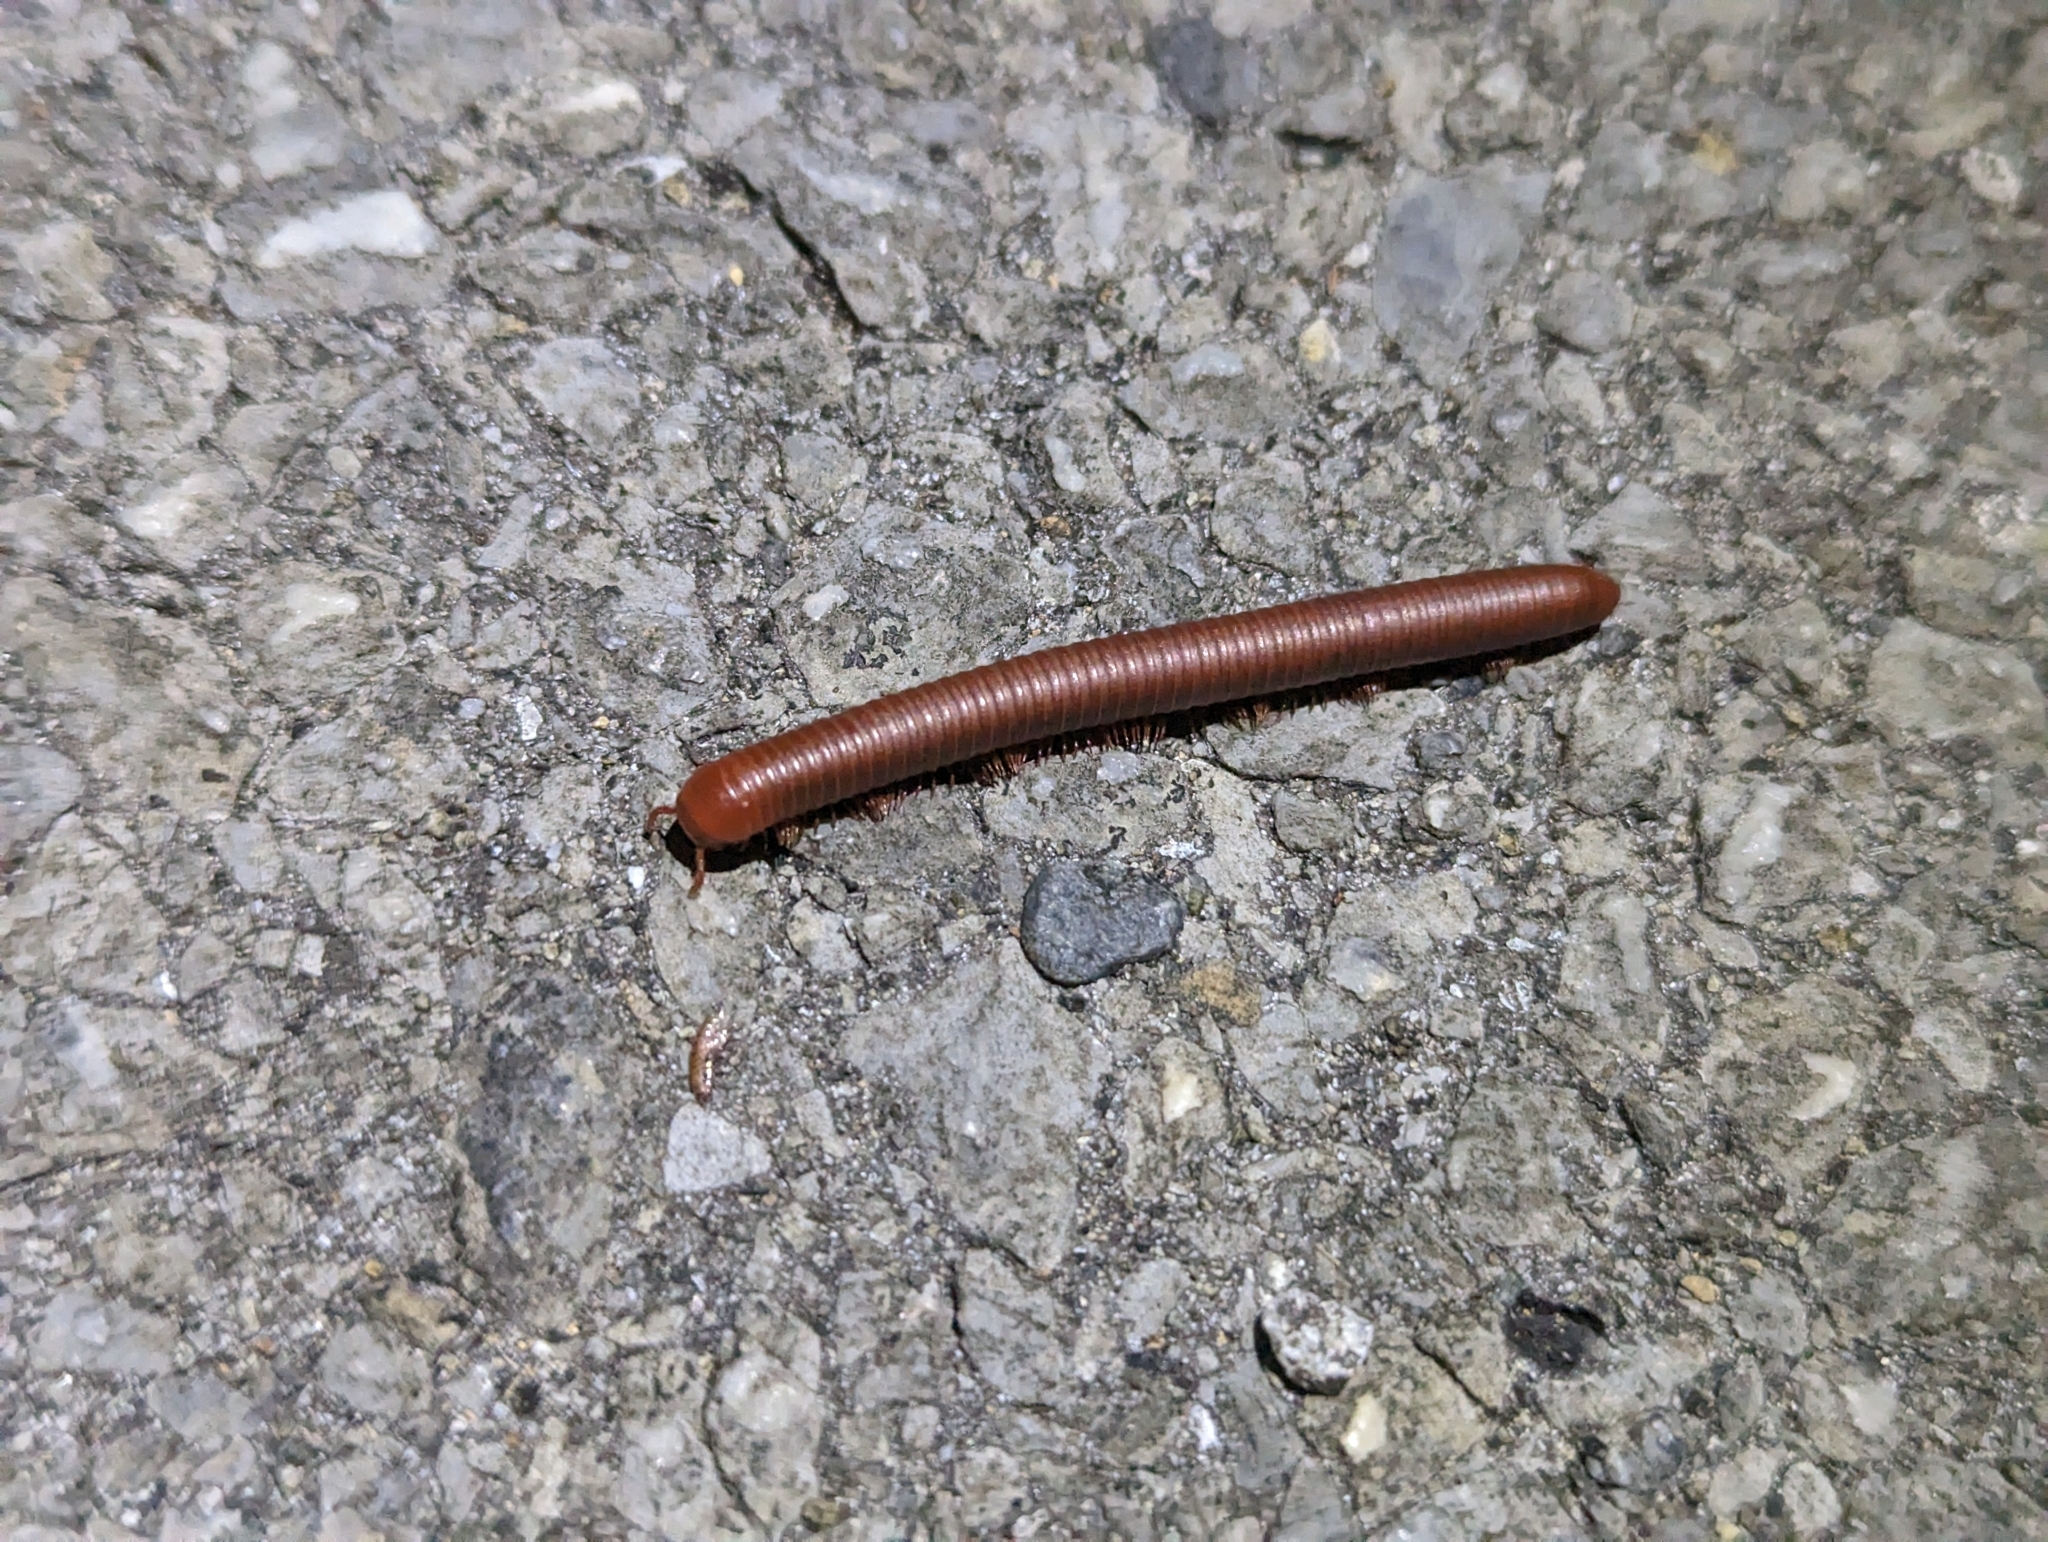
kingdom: Animalia
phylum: Arthropoda
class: Diplopoda
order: Spirobolida
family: Pachybolidae
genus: Trigoniulus
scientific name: Trigoniulus corallinus
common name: Millipede
